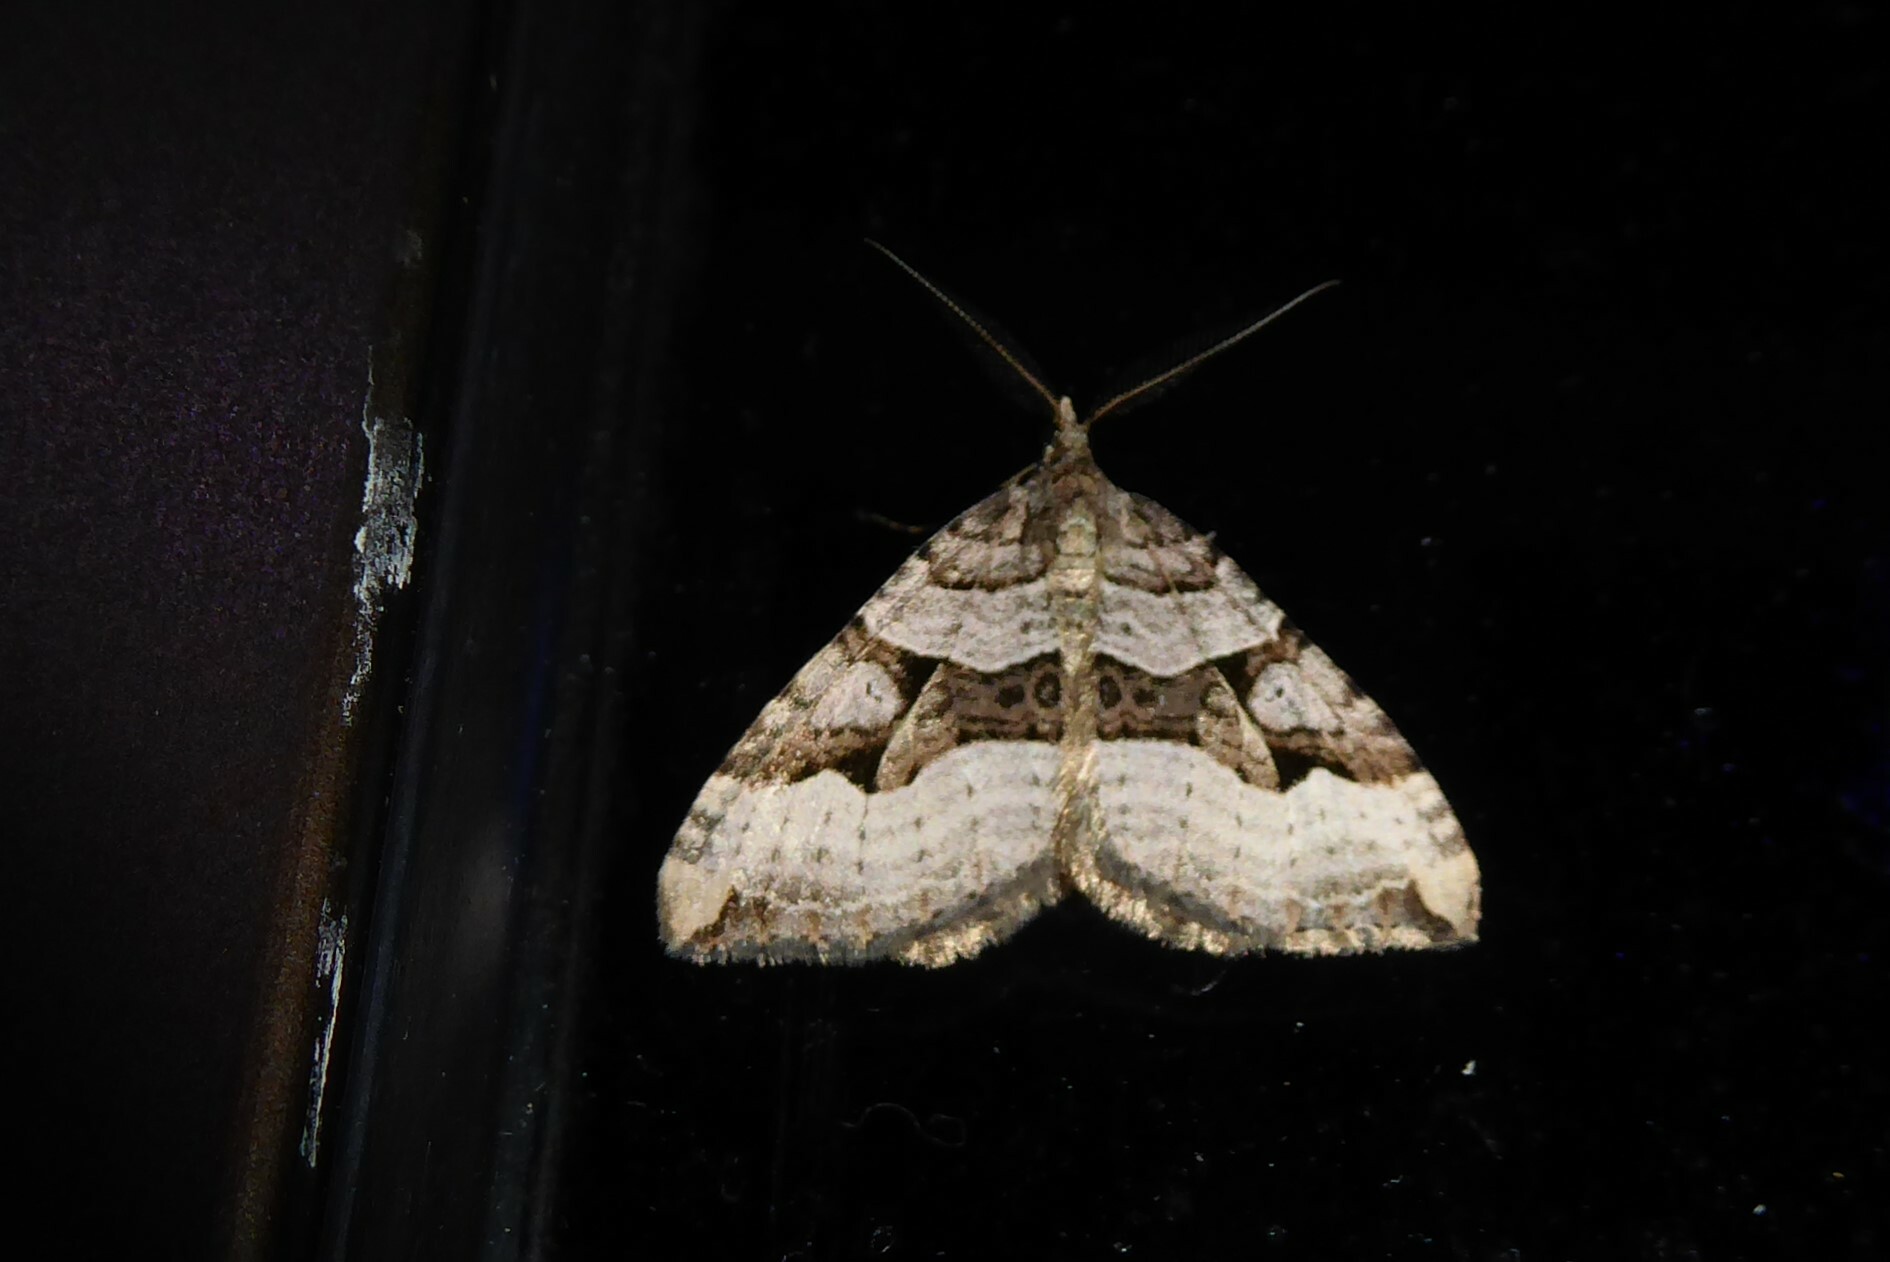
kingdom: Animalia
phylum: Arthropoda
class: Insecta
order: Lepidoptera
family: Geometridae
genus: Xanthorhoe
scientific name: Xanthorhoe semifissata
